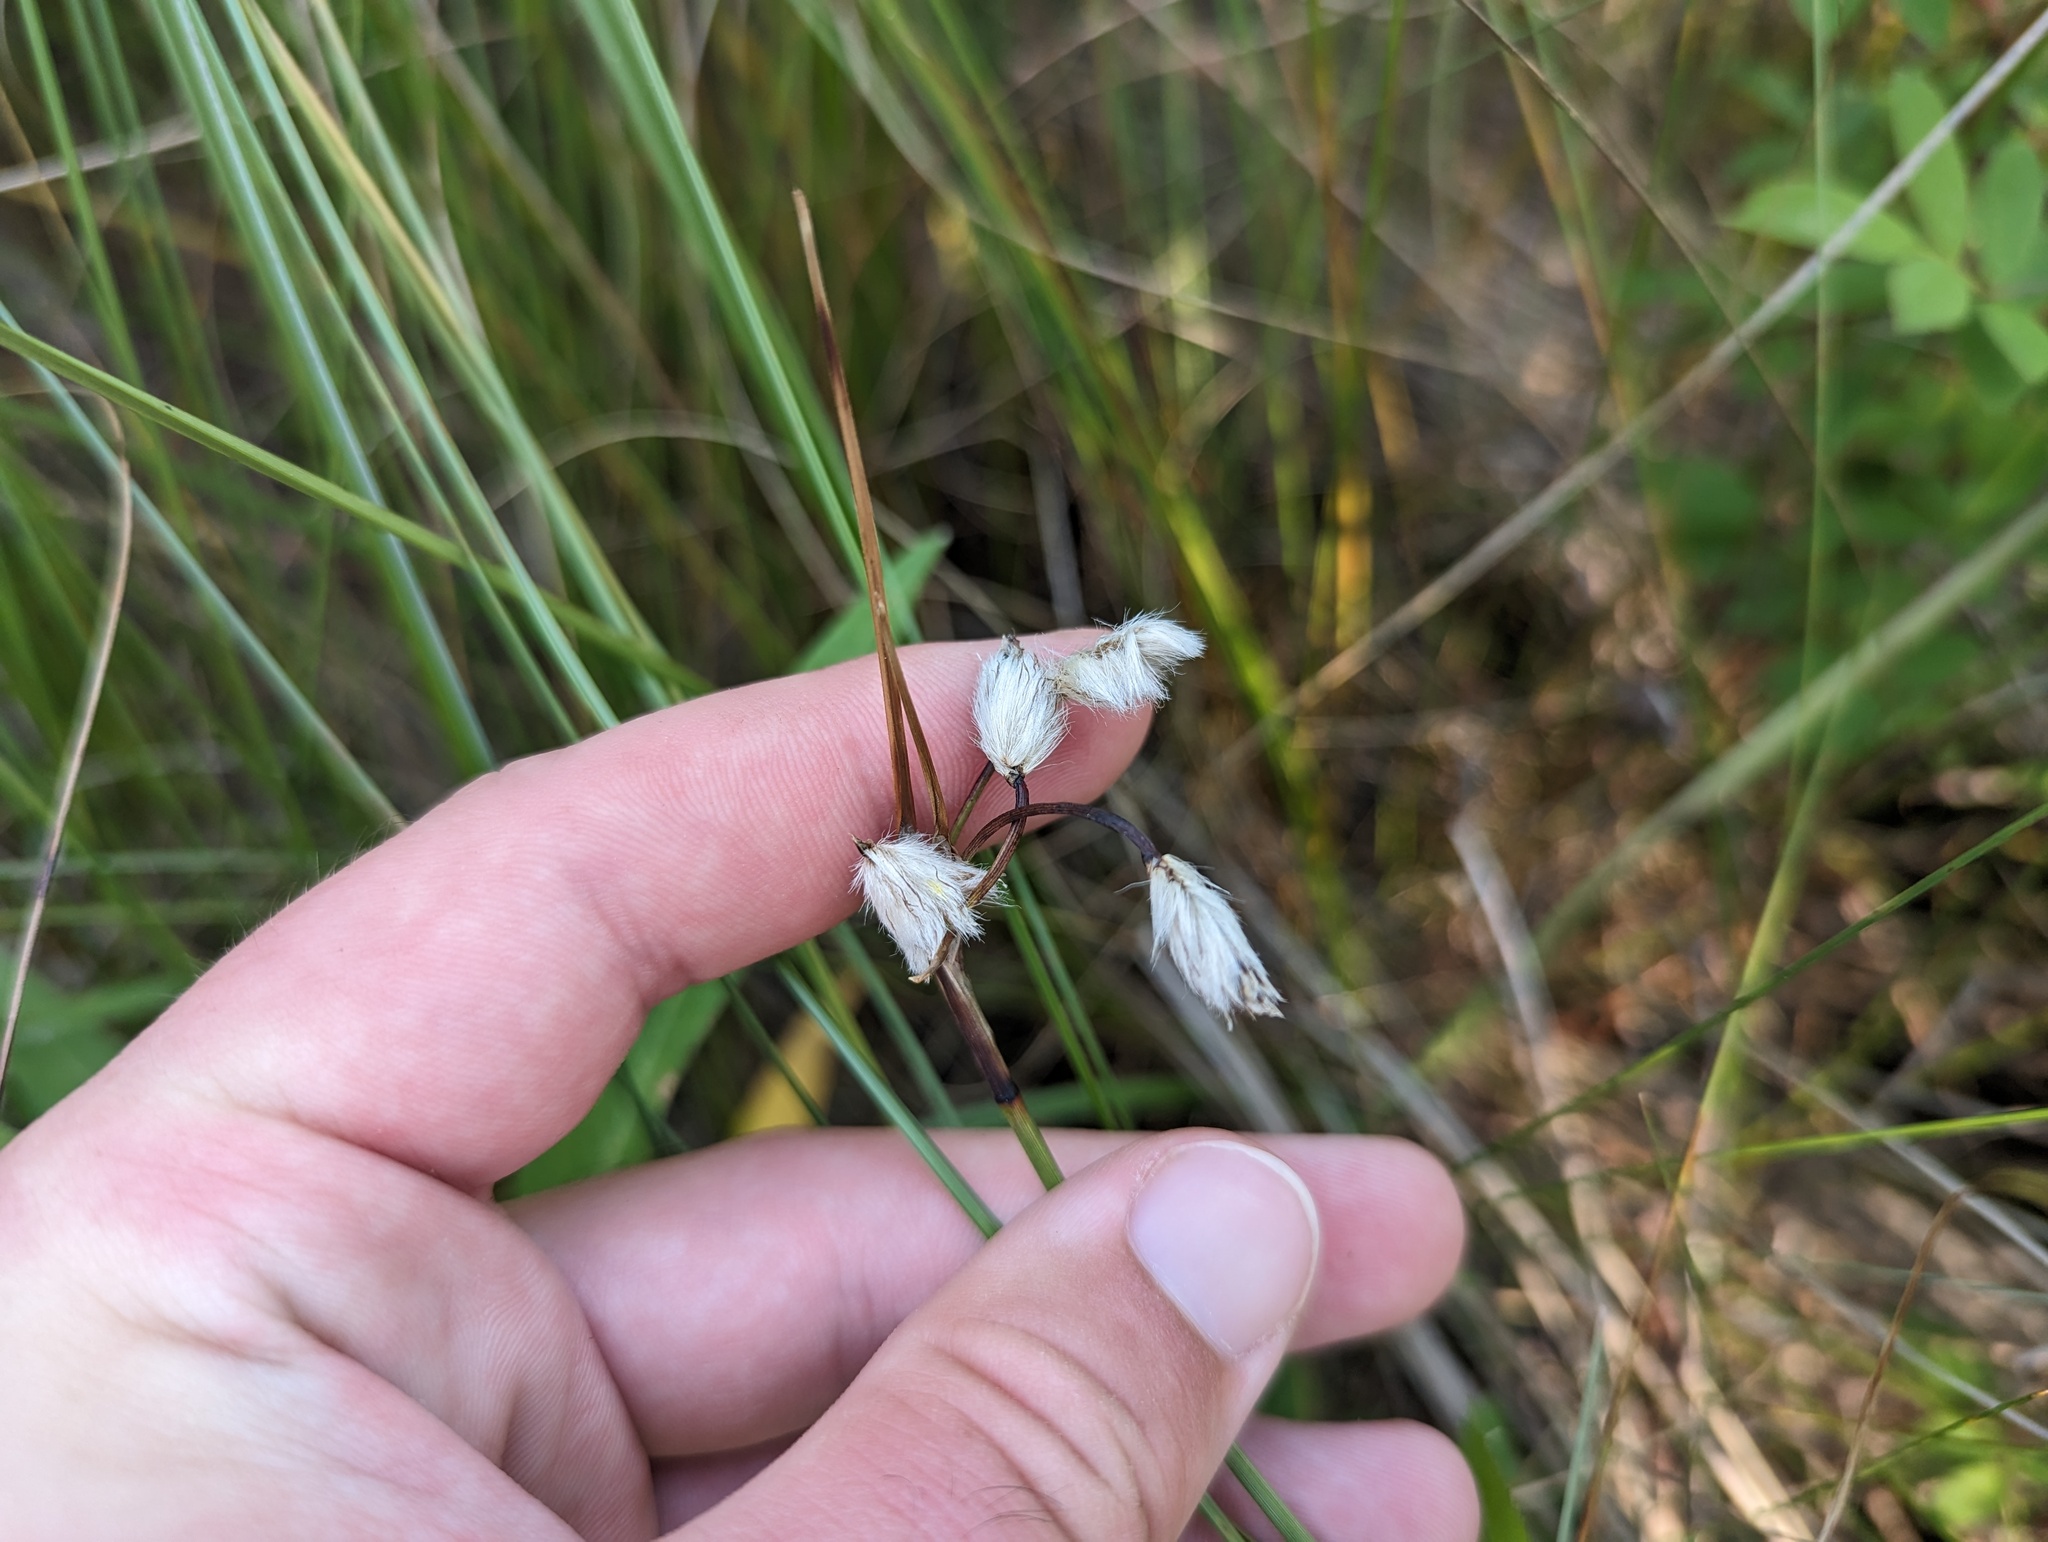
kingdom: Plantae
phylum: Tracheophyta
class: Liliopsida
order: Poales
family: Cyperaceae
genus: Eriophorum
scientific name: Eriophorum angustifolium
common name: Common cottongrass
